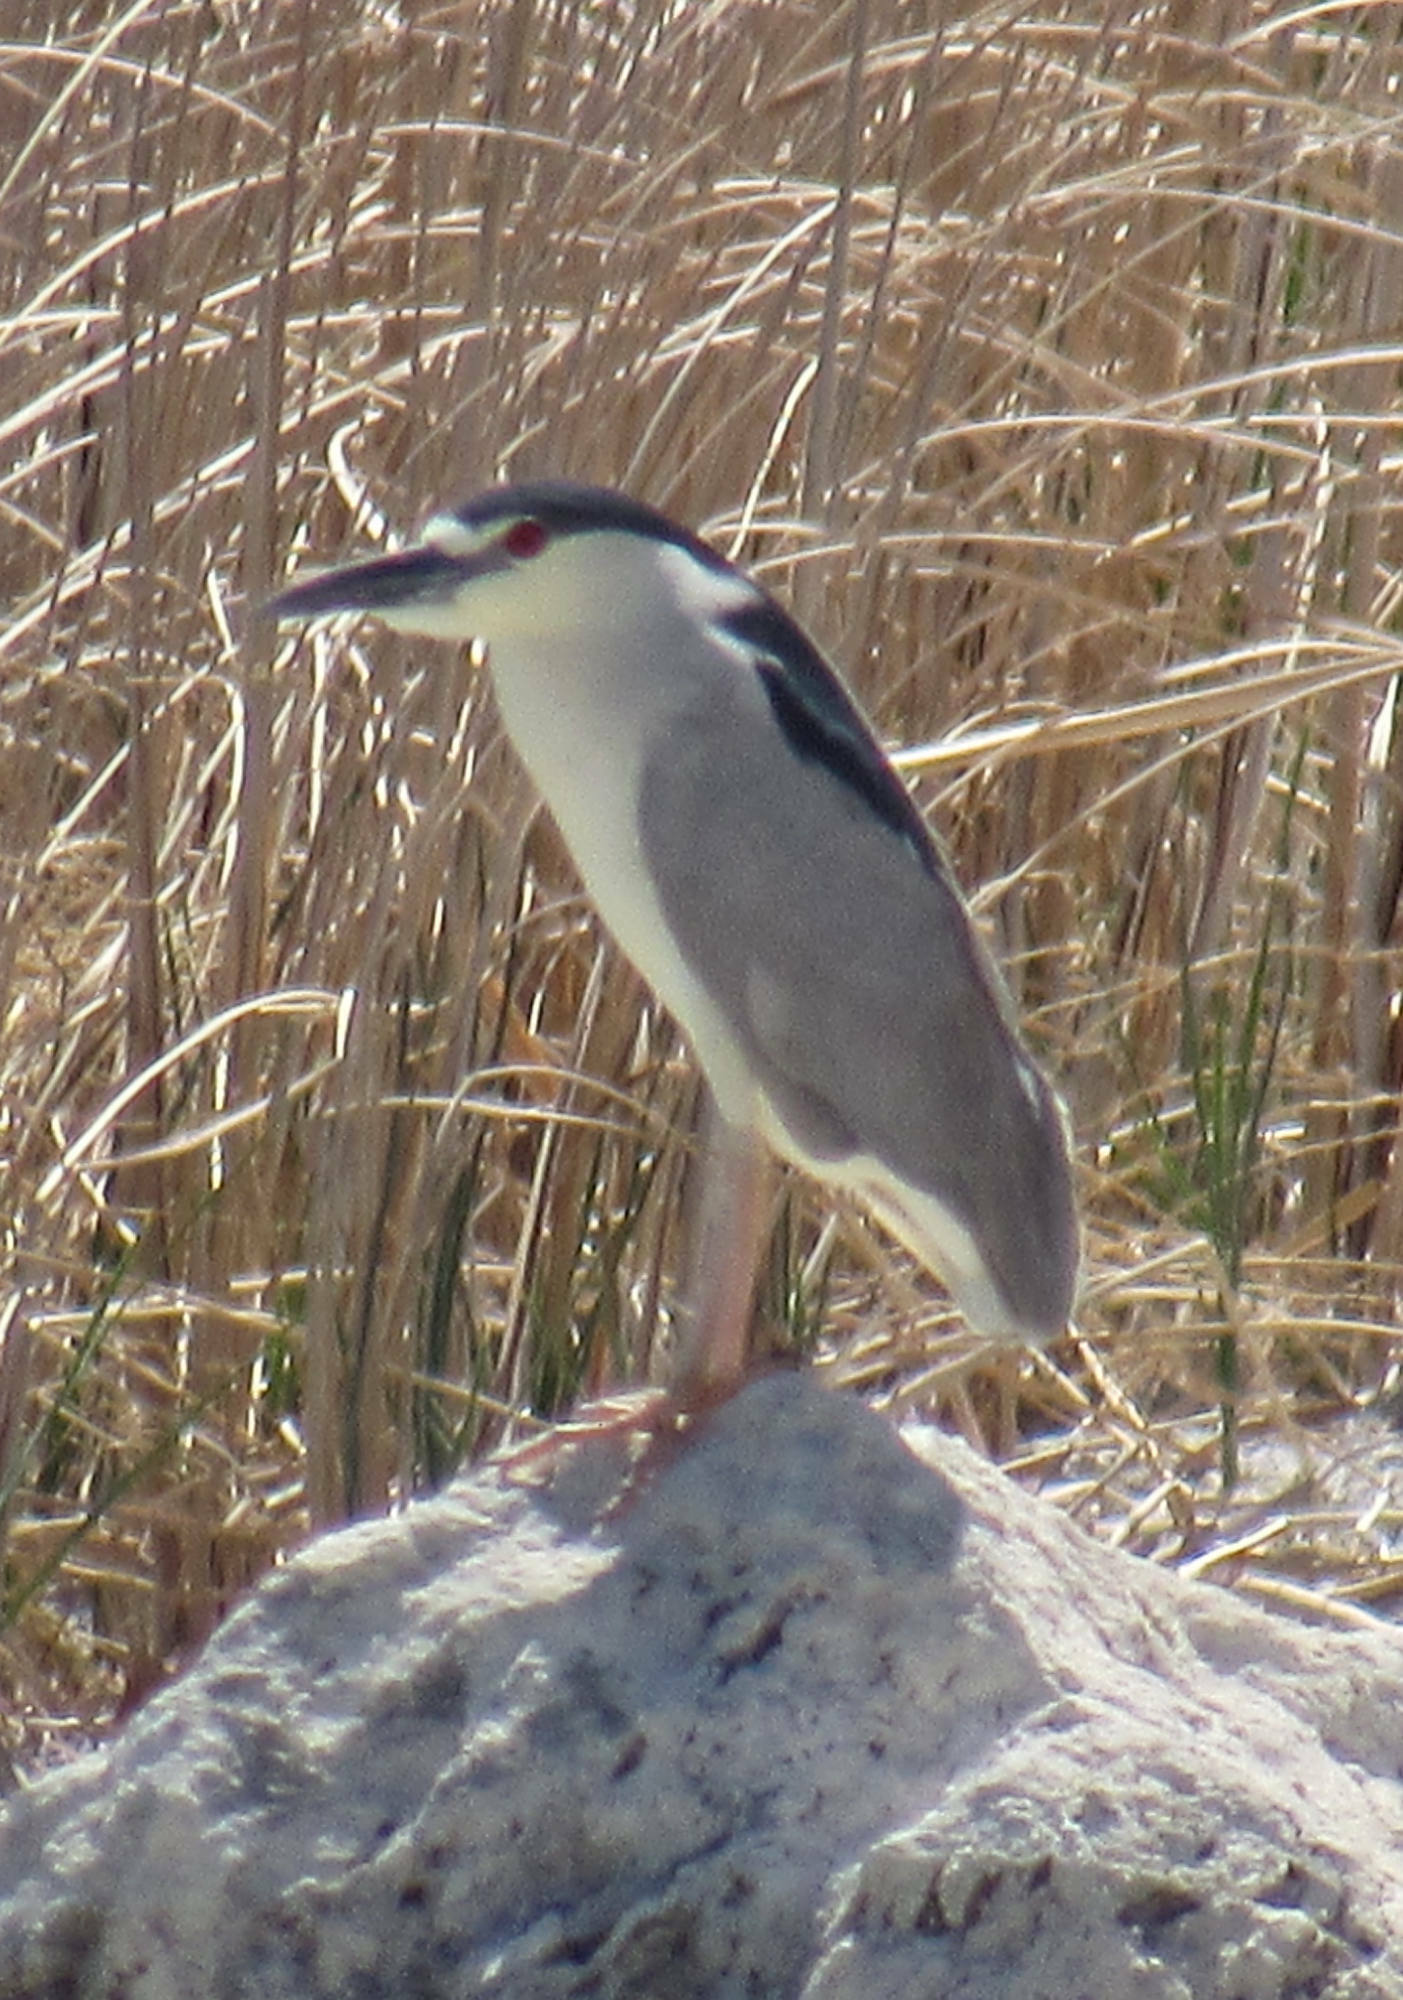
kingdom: Animalia
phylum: Chordata
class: Aves
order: Pelecaniformes
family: Ardeidae
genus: Nycticorax
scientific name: Nycticorax nycticorax
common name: Black-crowned night heron
